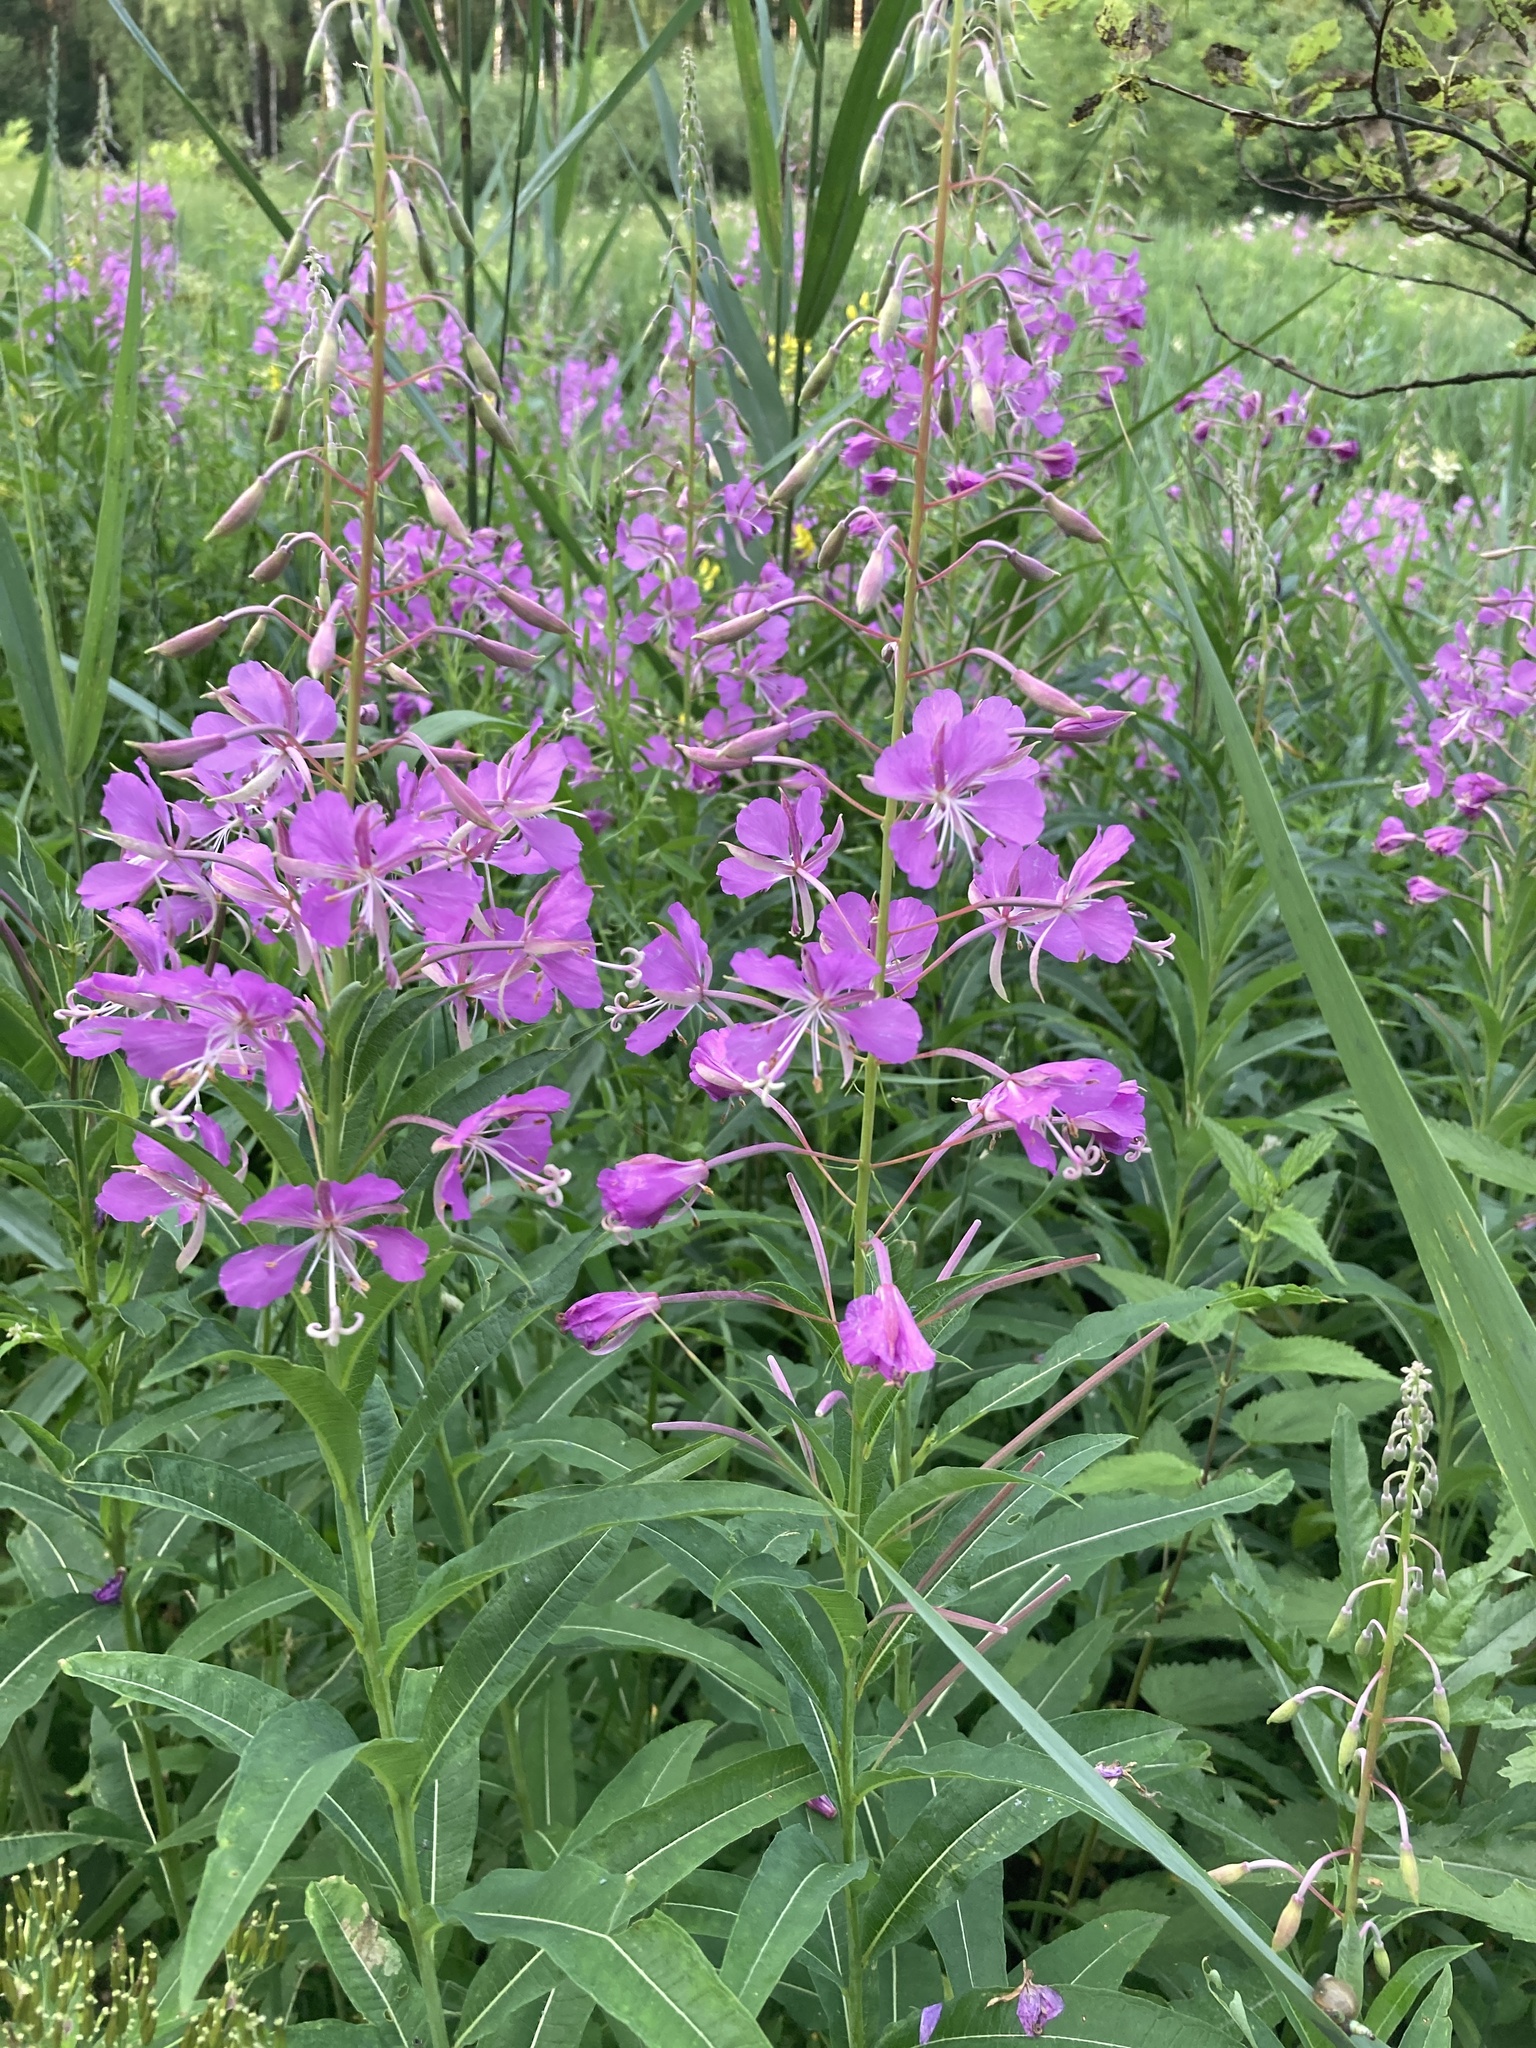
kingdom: Plantae
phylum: Tracheophyta
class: Magnoliopsida
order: Myrtales
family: Onagraceae
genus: Chamaenerion
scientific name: Chamaenerion angustifolium
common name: Fireweed
